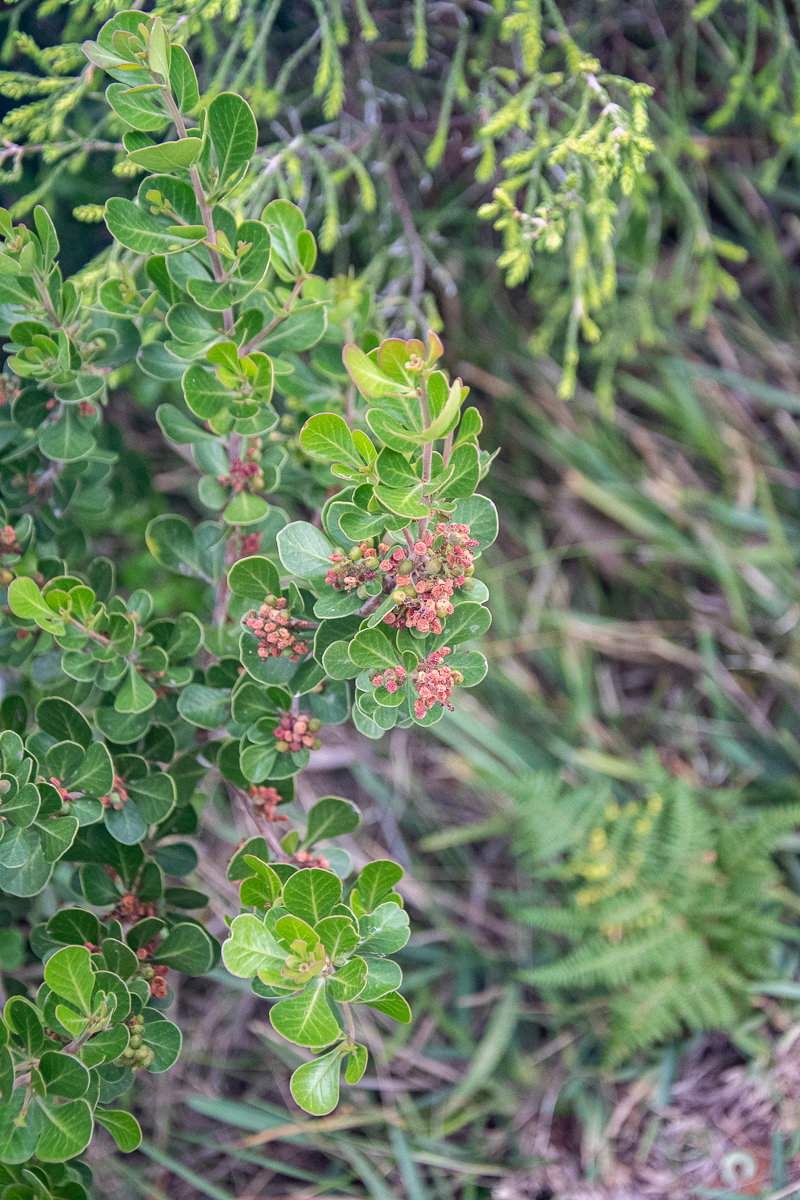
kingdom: Plantae
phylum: Tracheophyta
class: Magnoliopsida
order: Sapindales
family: Anacardiaceae
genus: Searsia
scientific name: Searsia lucida
